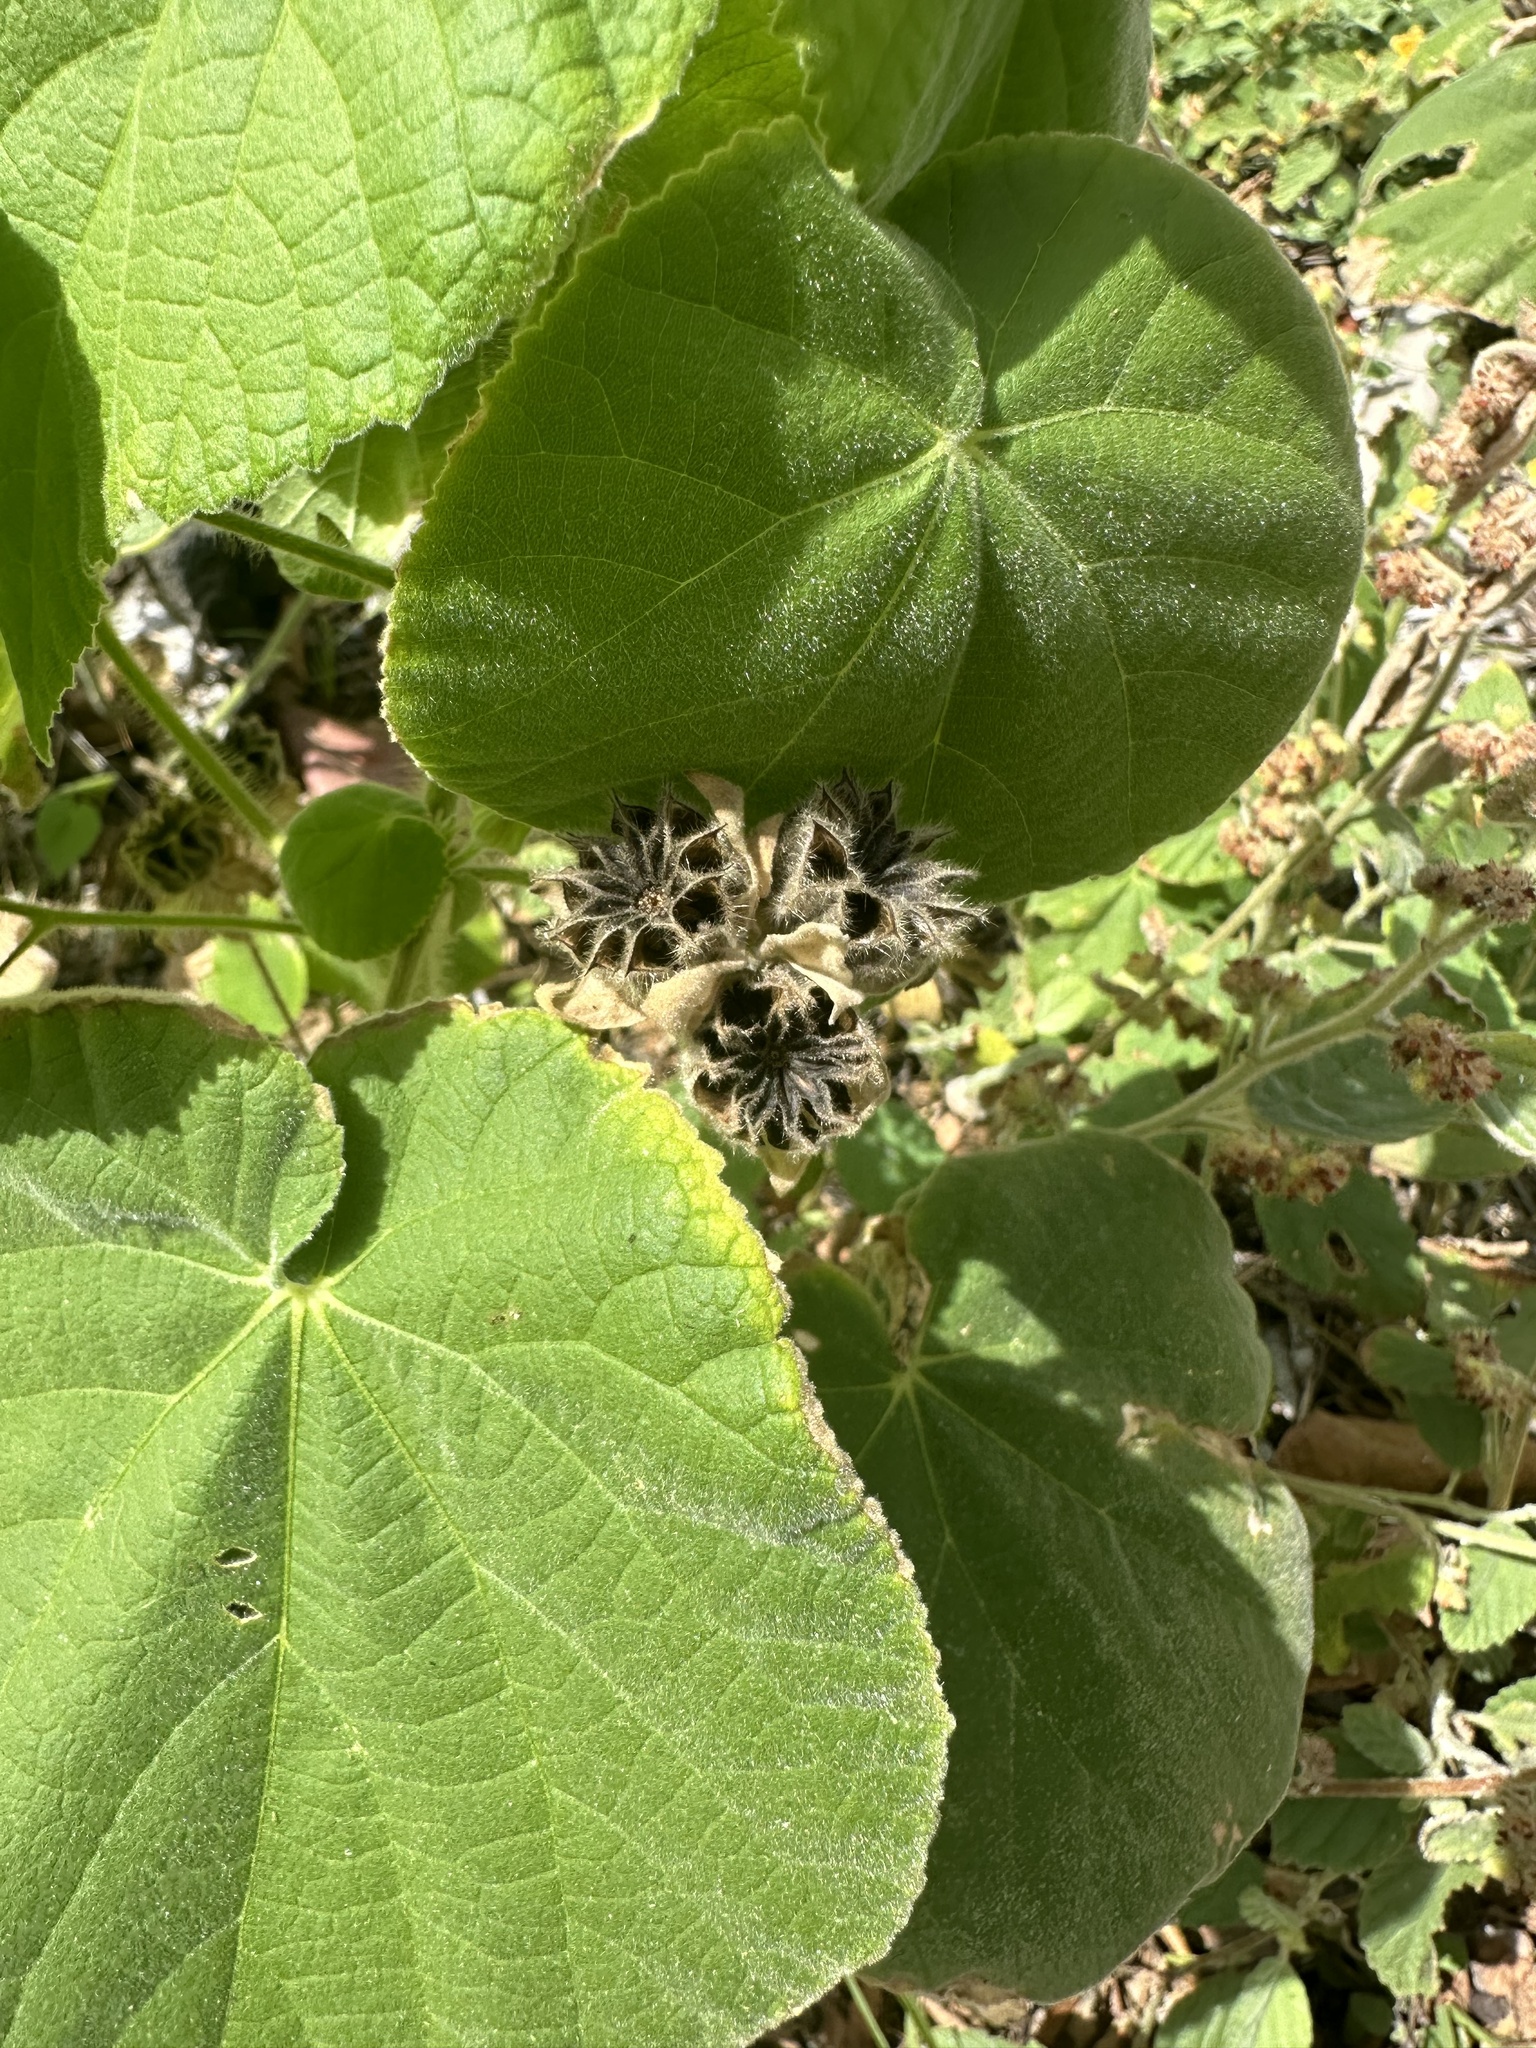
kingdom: Plantae
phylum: Tracheophyta
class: Magnoliopsida
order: Malvales
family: Malvaceae
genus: Abutilon
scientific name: Abutilon grandifolium
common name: Hairy abutilon
